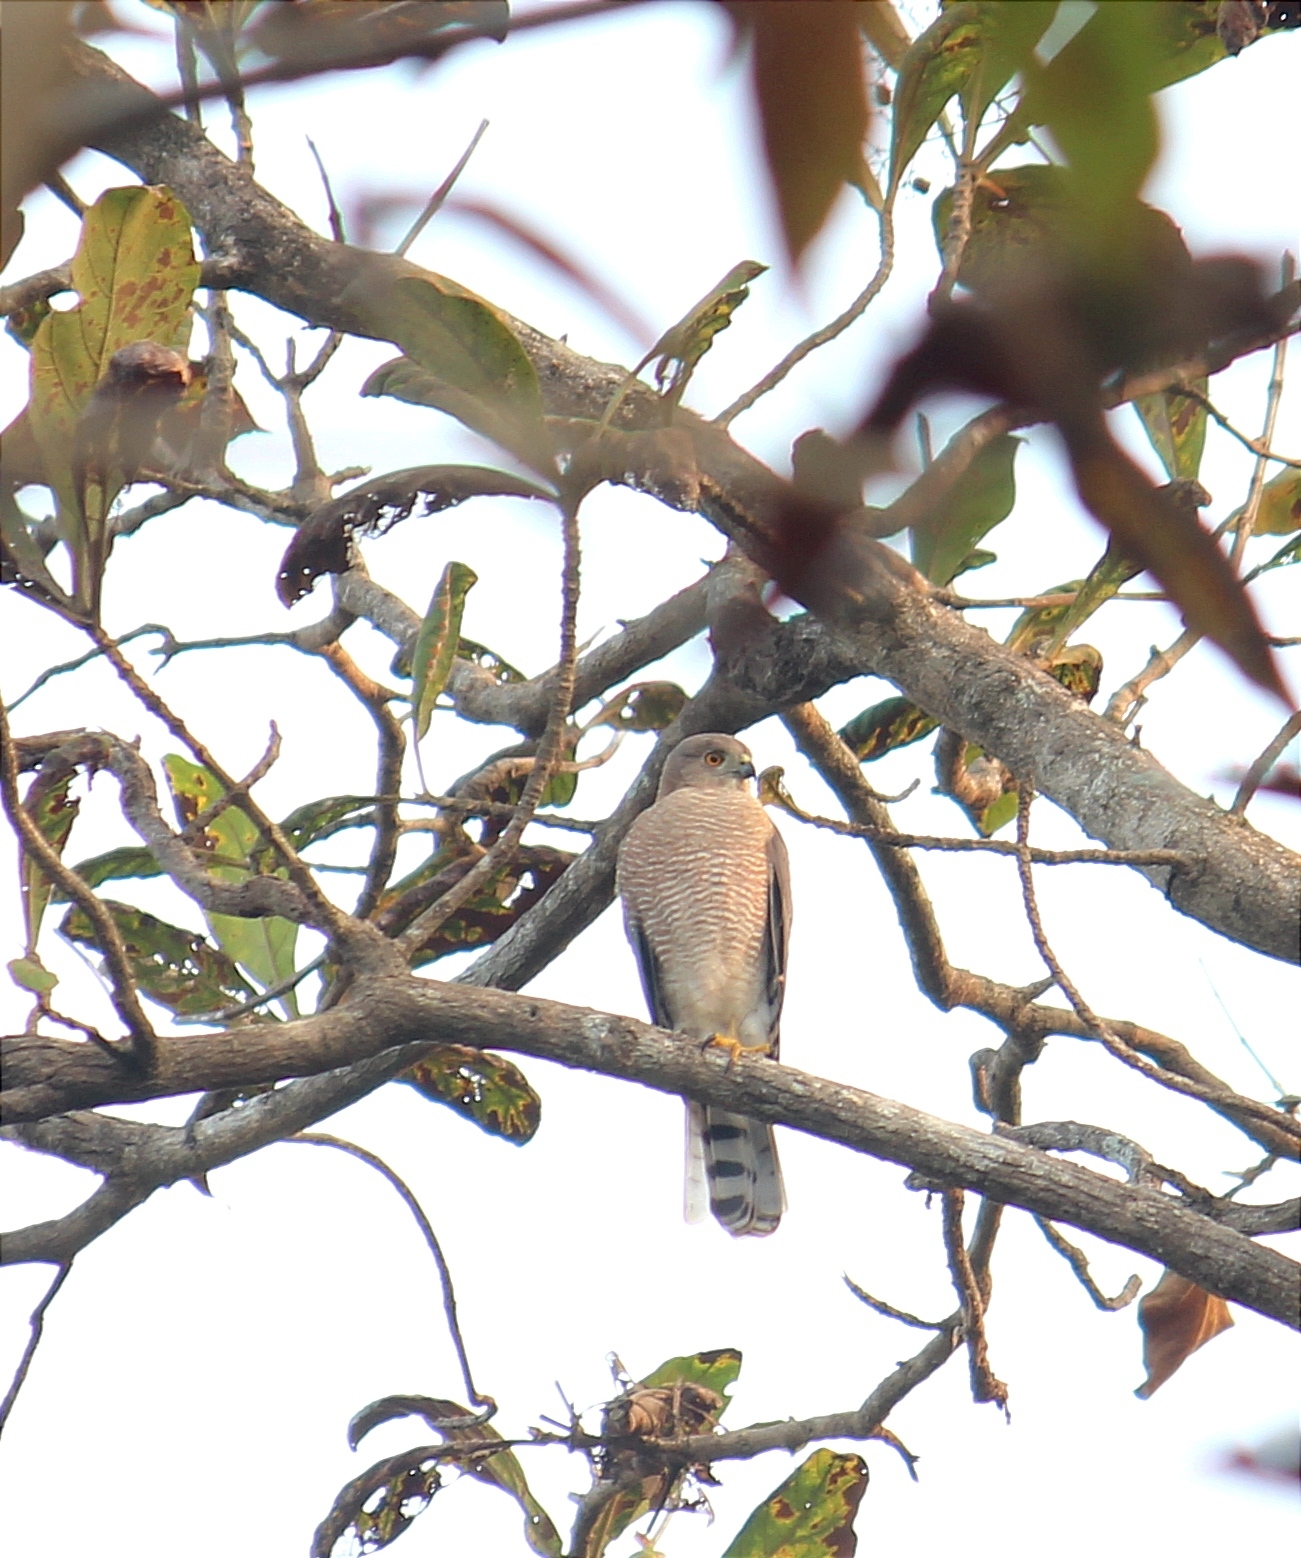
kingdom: Animalia
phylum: Chordata
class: Aves
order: Accipitriformes
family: Accipitridae
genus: Accipiter
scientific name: Accipiter badius
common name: Shikra
